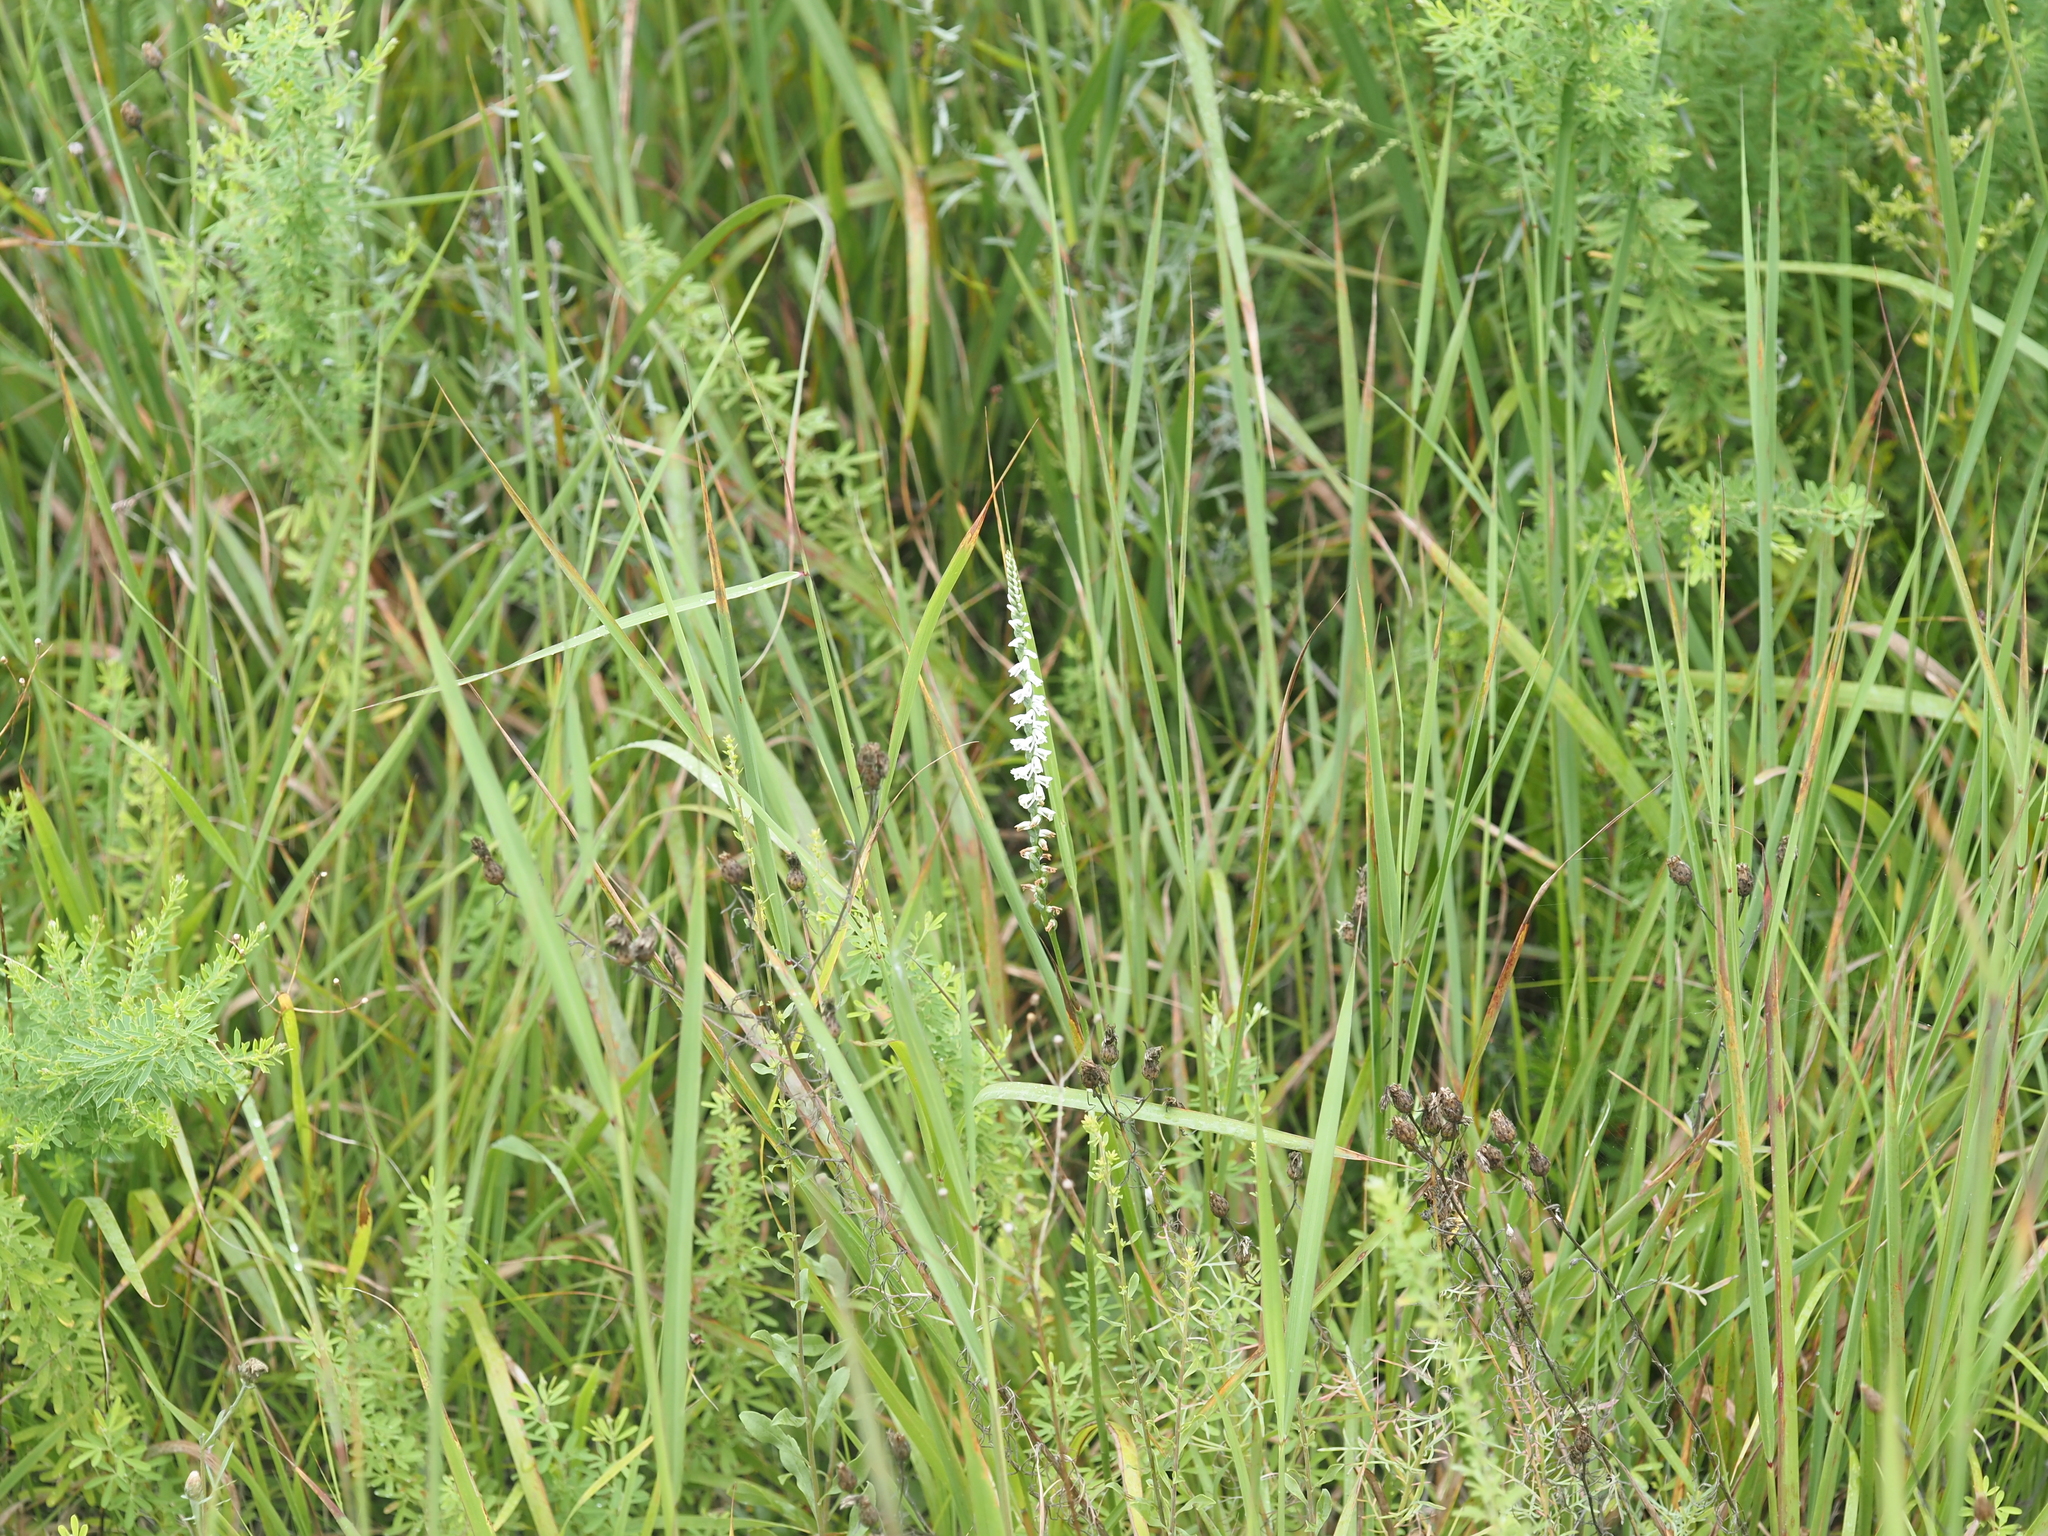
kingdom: Plantae
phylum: Tracheophyta
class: Liliopsida
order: Asparagales
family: Orchidaceae
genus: Spiranthes
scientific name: Spiranthes lacera
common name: Northern slender ladies'-tresses
